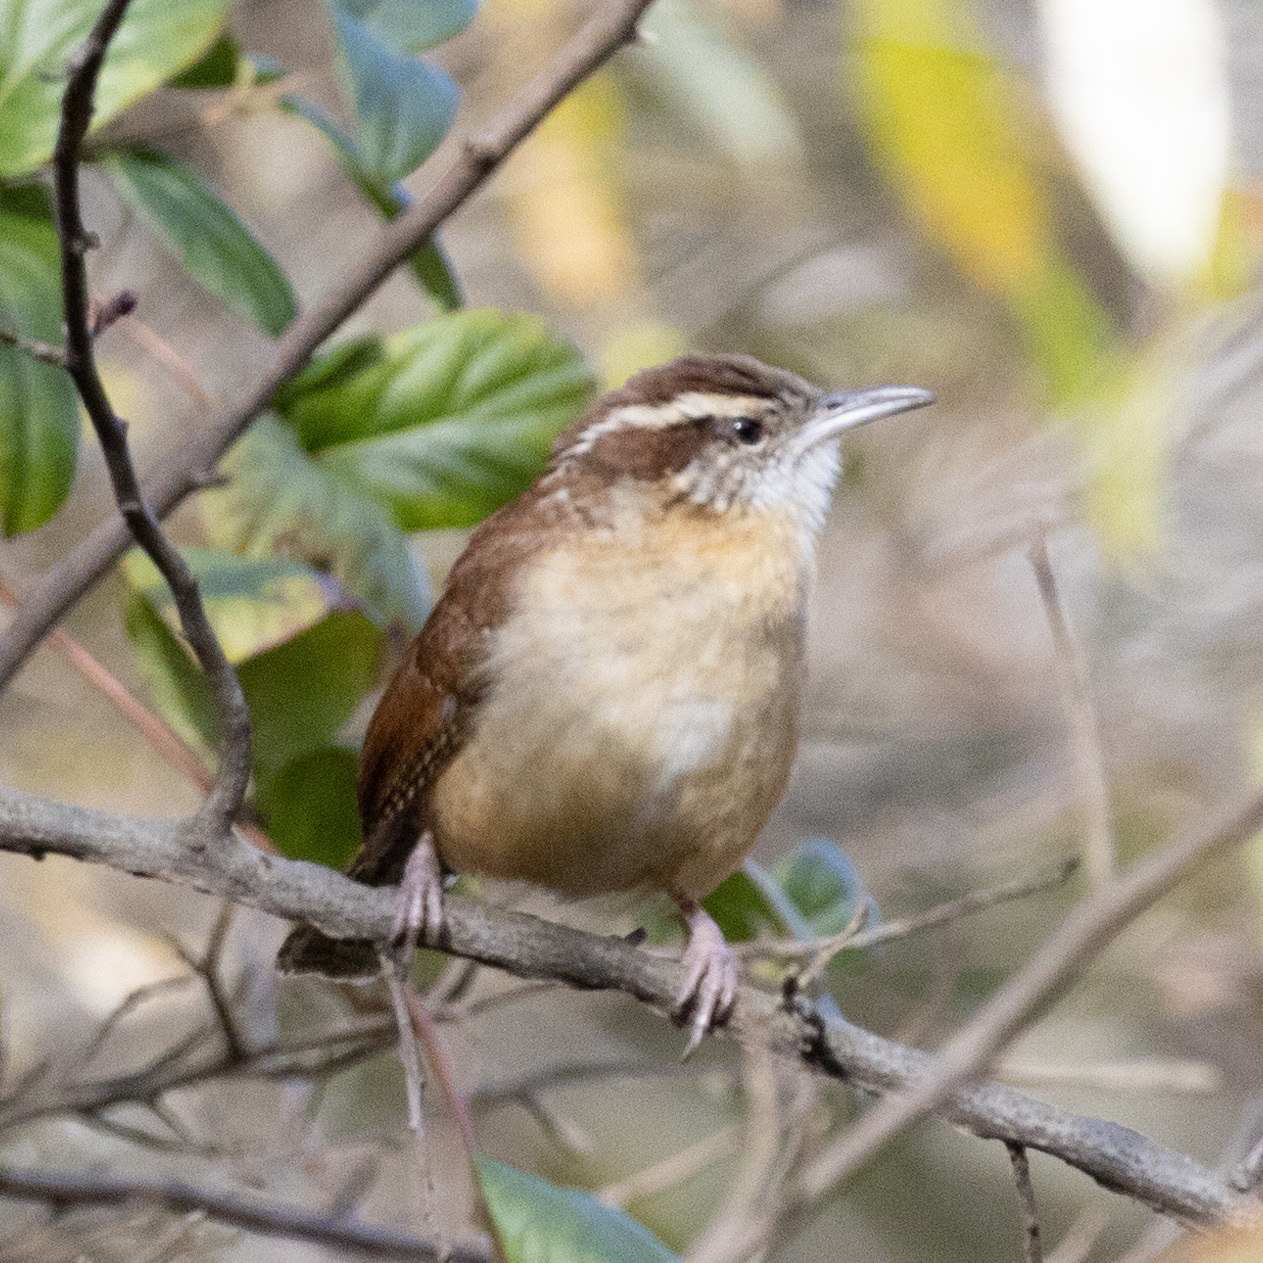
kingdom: Animalia
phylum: Chordata
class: Aves
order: Passeriformes
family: Troglodytidae
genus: Thryothorus
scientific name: Thryothorus ludovicianus
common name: Carolina wren
